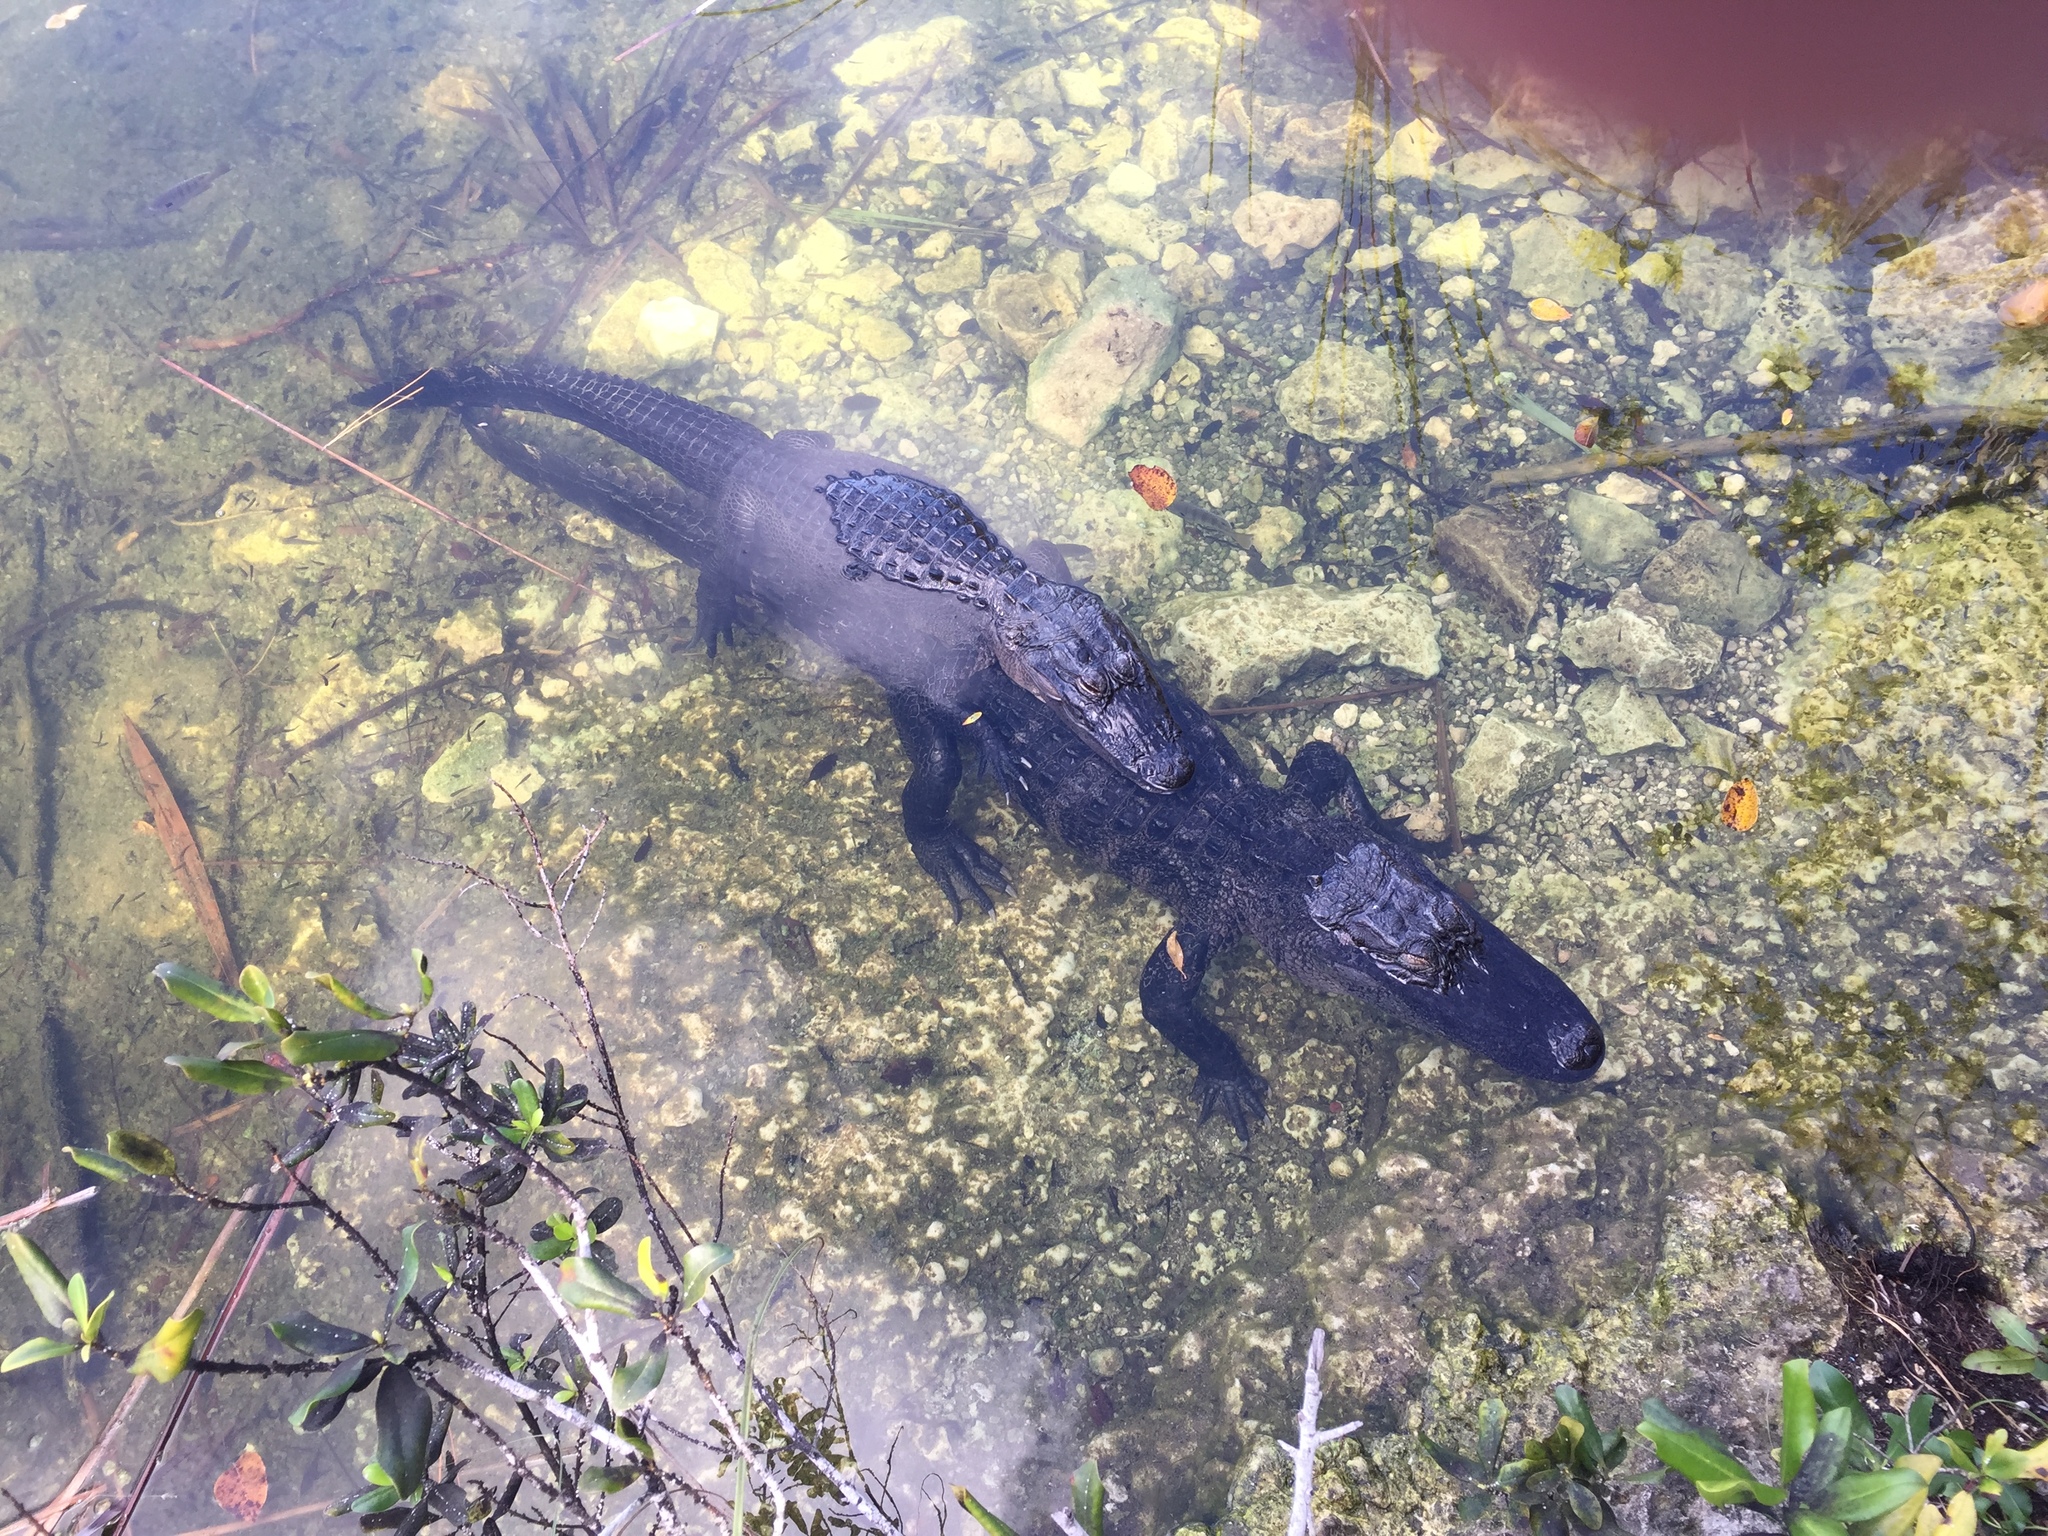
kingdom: Animalia
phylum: Chordata
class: Crocodylia
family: Alligatoridae
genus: Alligator
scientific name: Alligator mississippiensis
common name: American alligator
